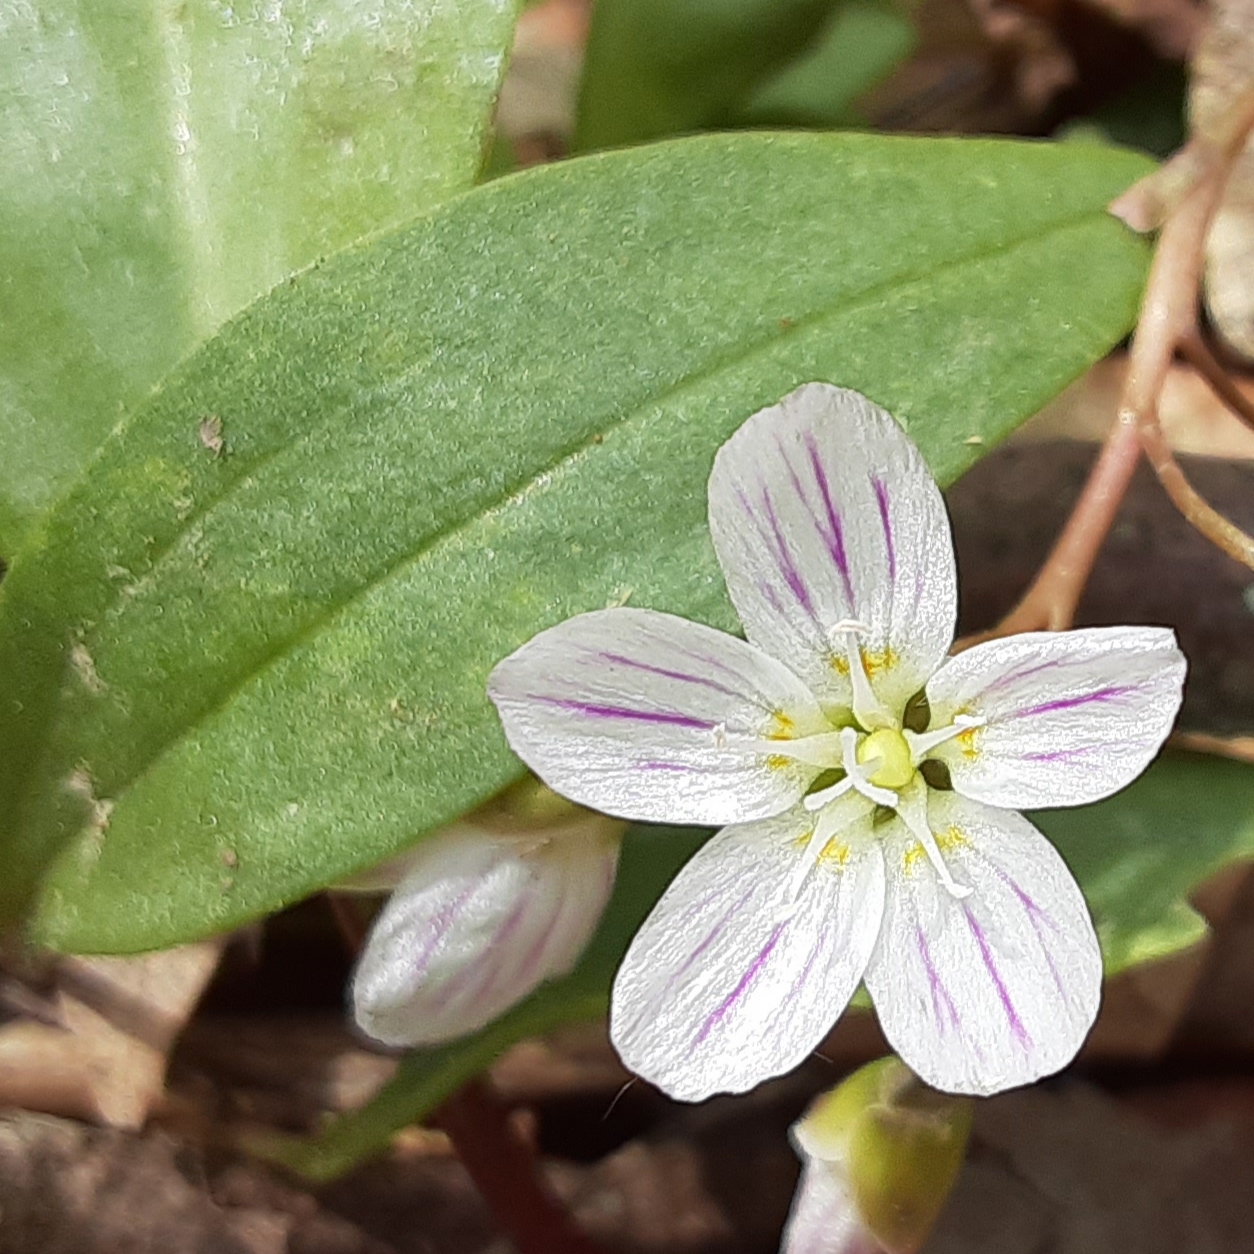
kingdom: Plantae
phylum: Tracheophyta
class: Magnoliopsida
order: Caryophyllales
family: Montiaceae
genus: Claytonia
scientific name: Claytonia caroliniana
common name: Carolina spring beauty
